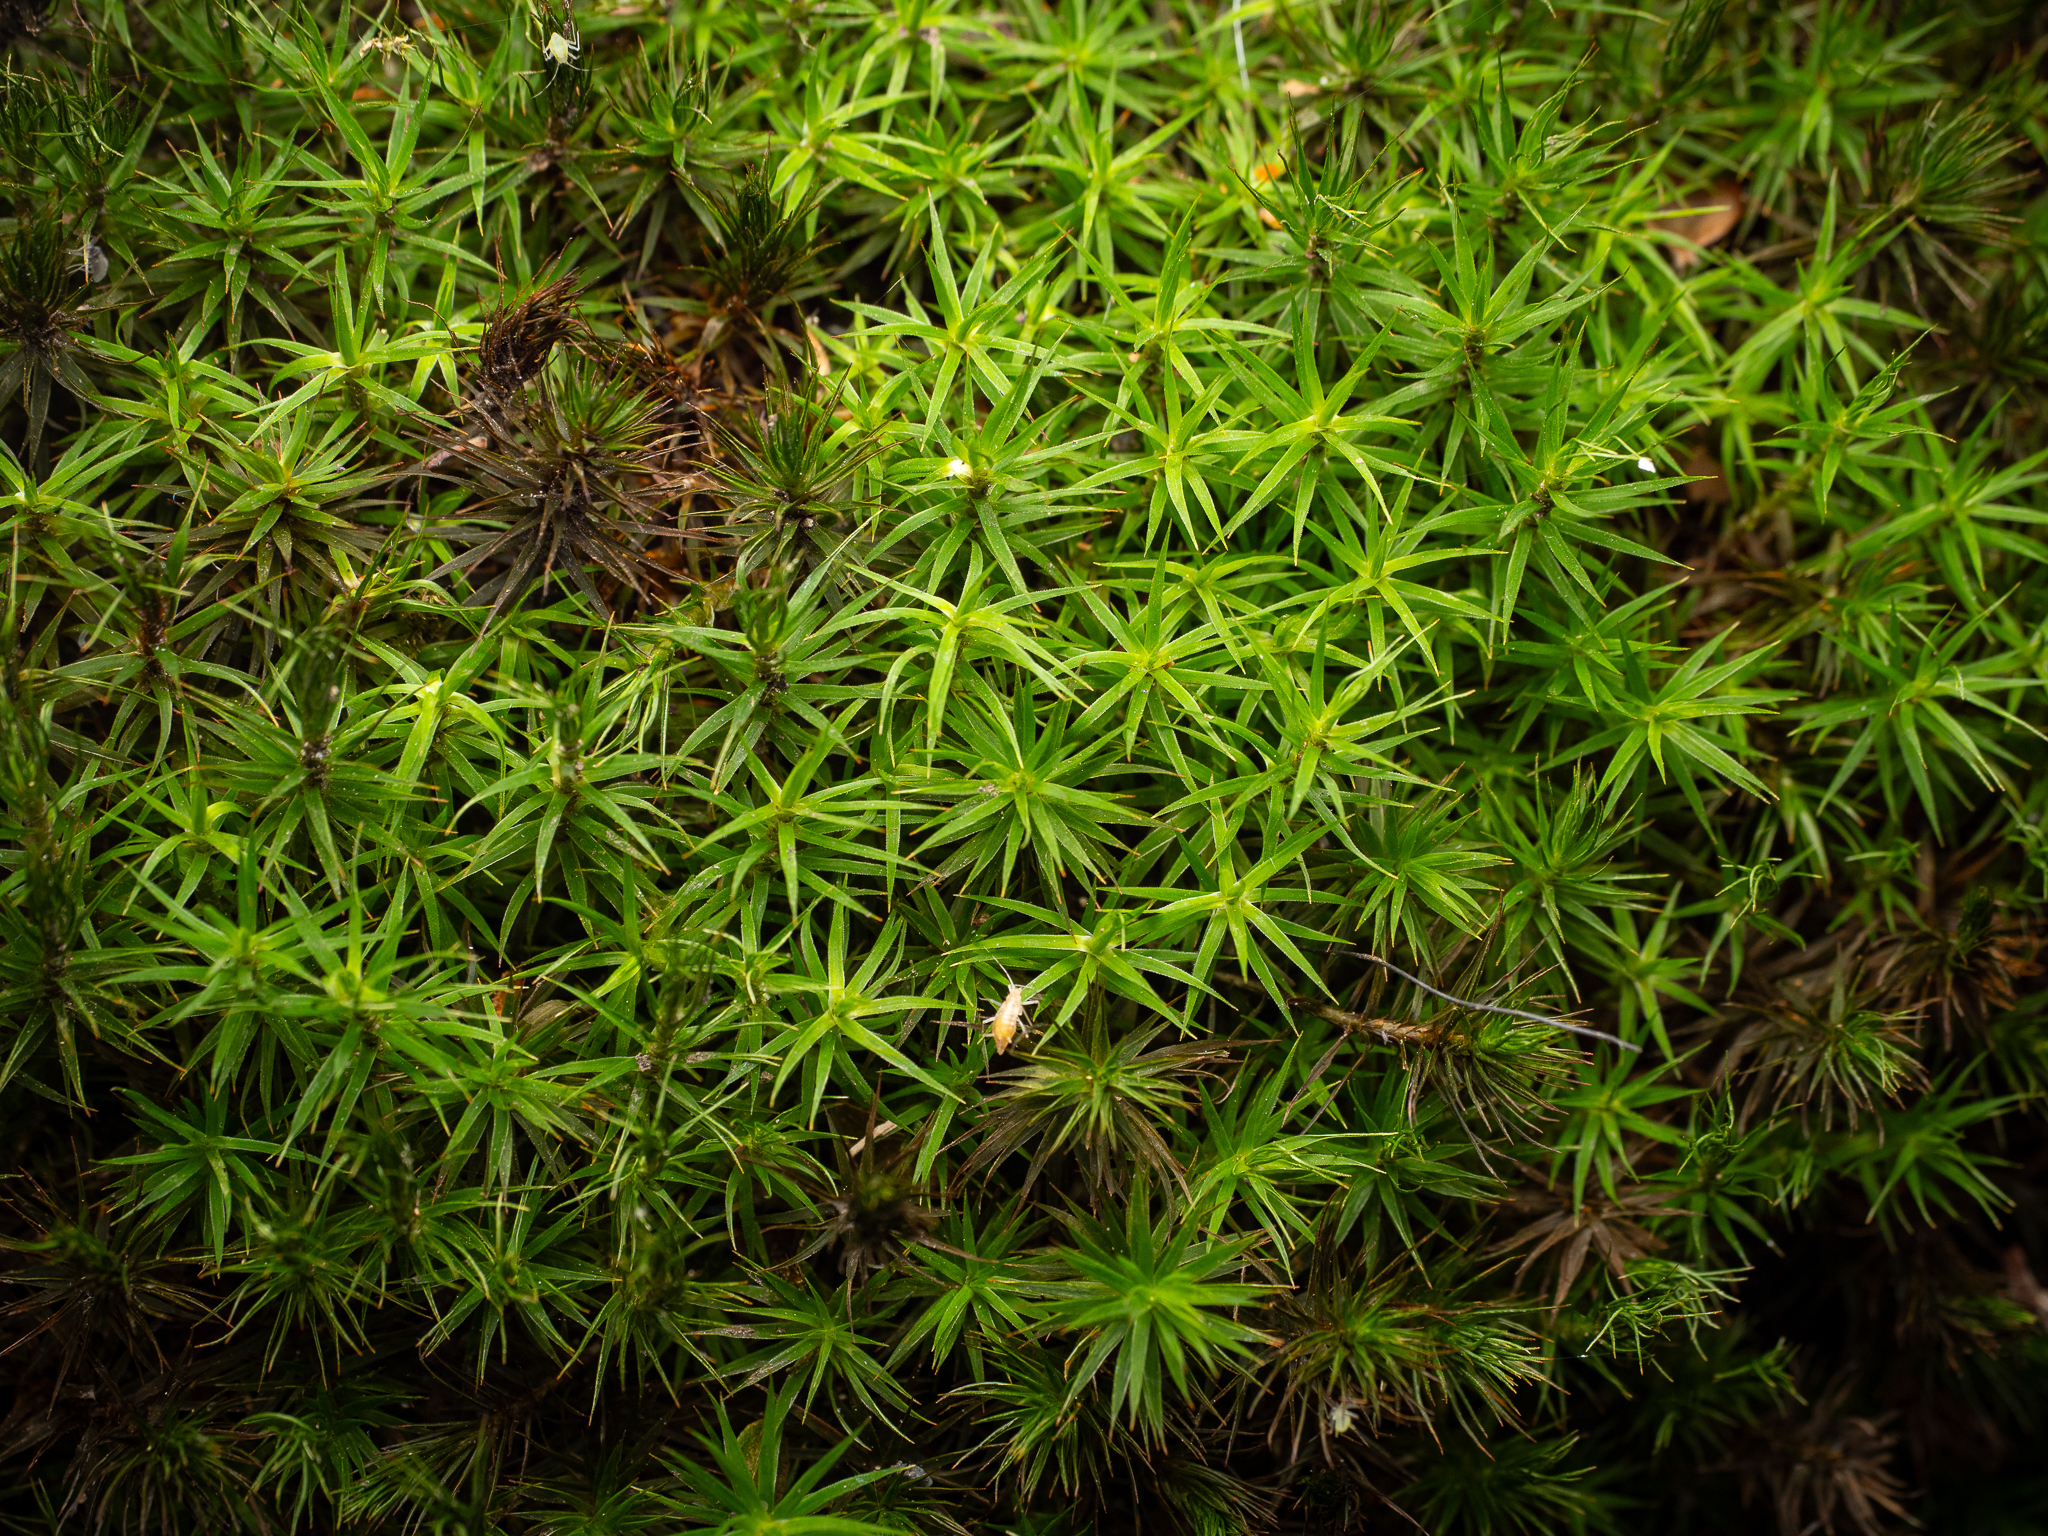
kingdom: Plantae
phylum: Bryophyta
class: Polytrichopsida
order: Polytrichales
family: Polytrichaceae
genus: Polytrichum
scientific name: Polytrichum formosum
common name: Bank haircap moss
